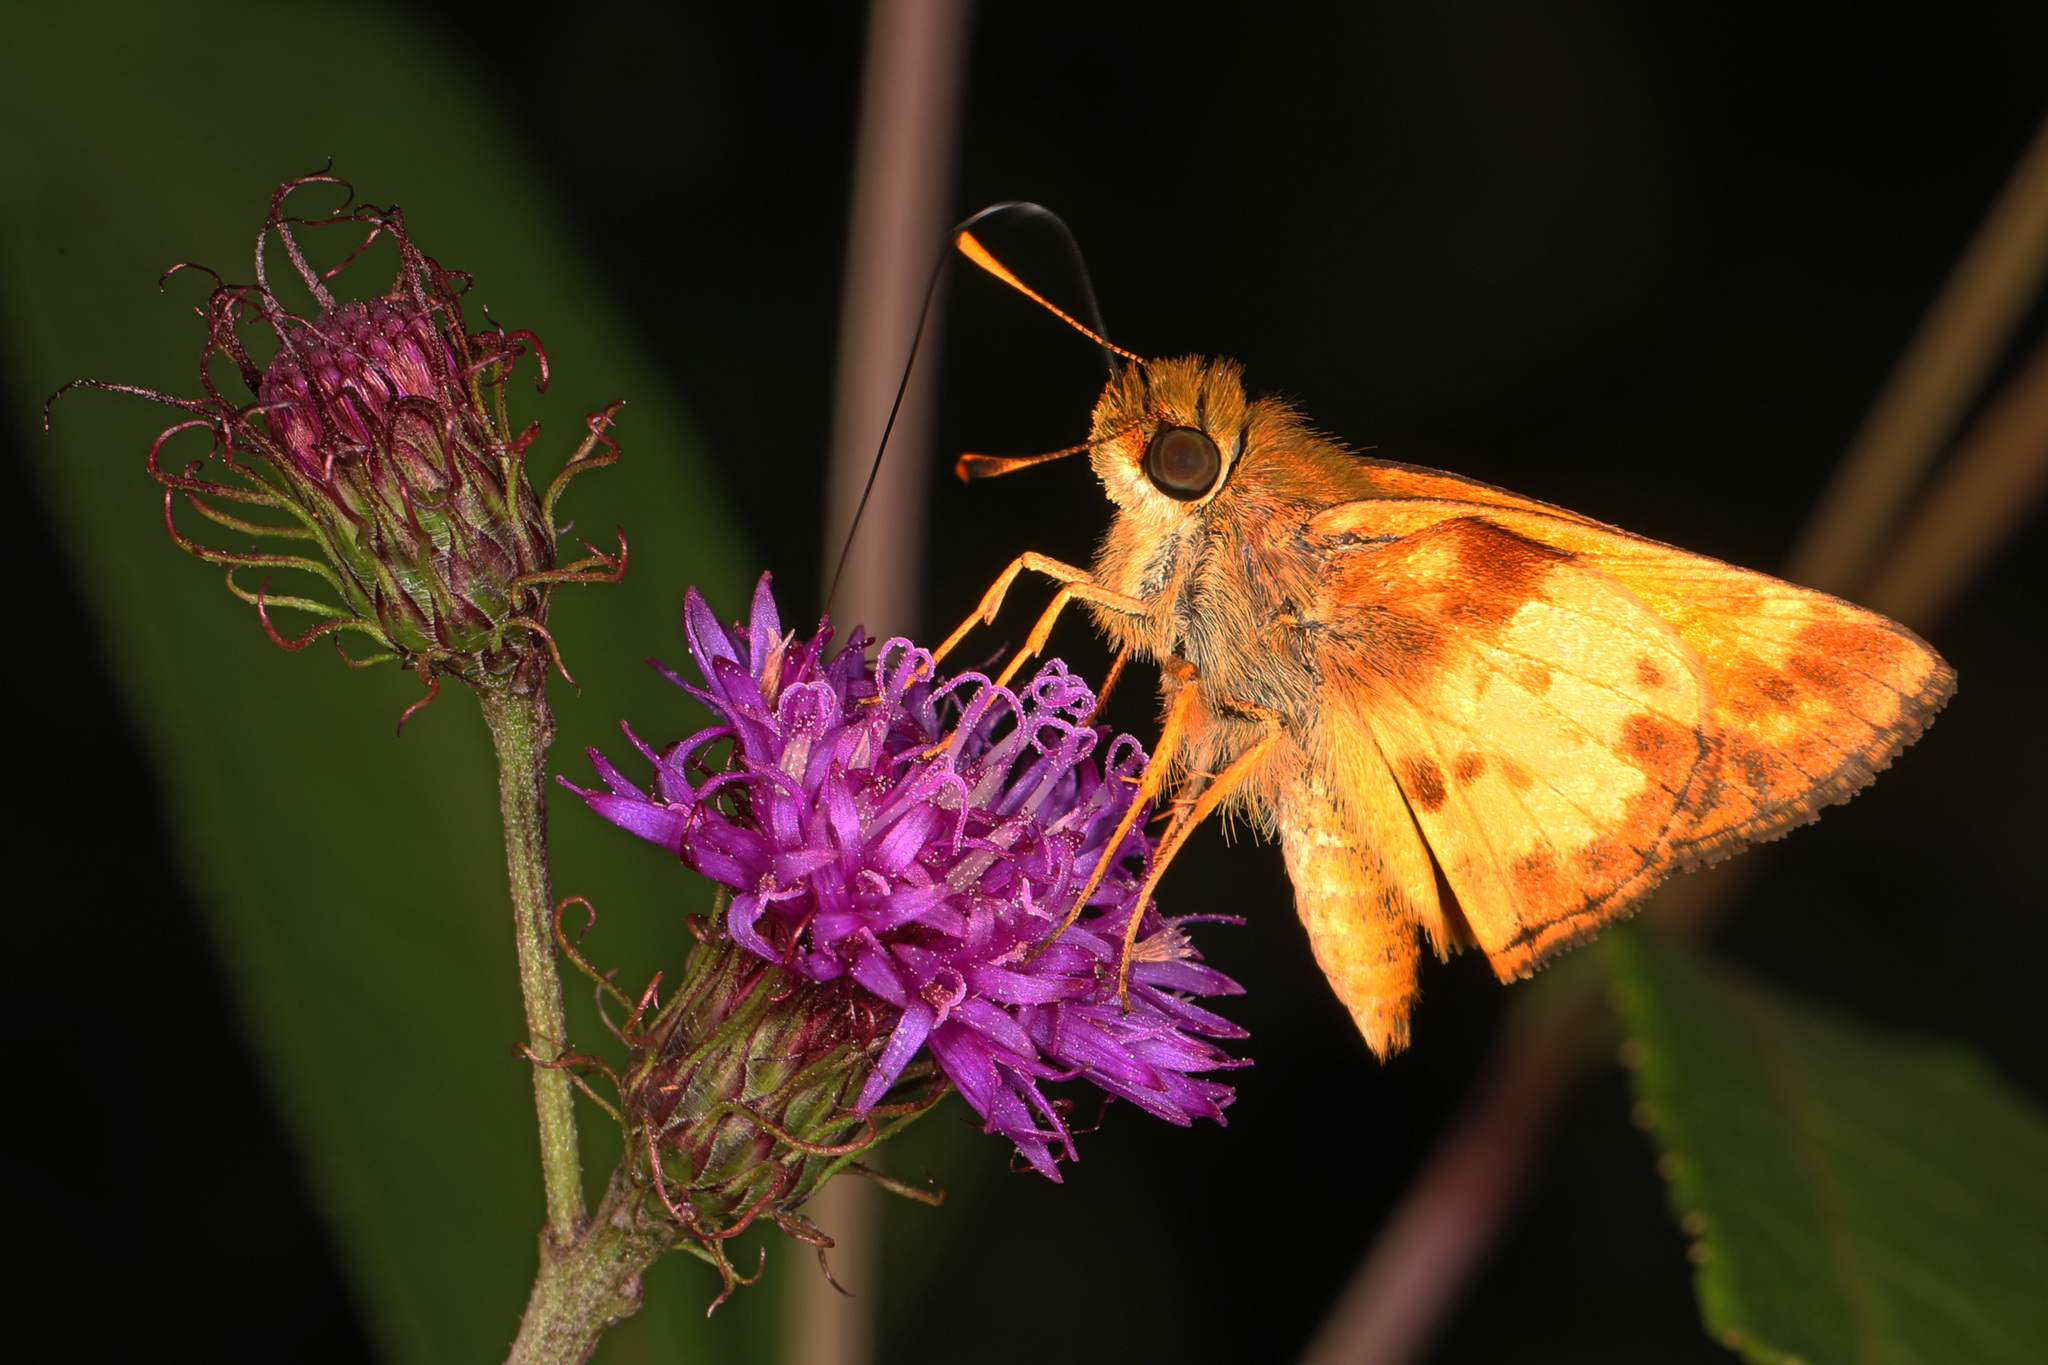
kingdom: Animalia
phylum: Arthropoda
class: Insecta
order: Lepidoptera
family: Hesperiidae
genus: Lon
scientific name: Lon zabulon
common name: Zabulon skipper
